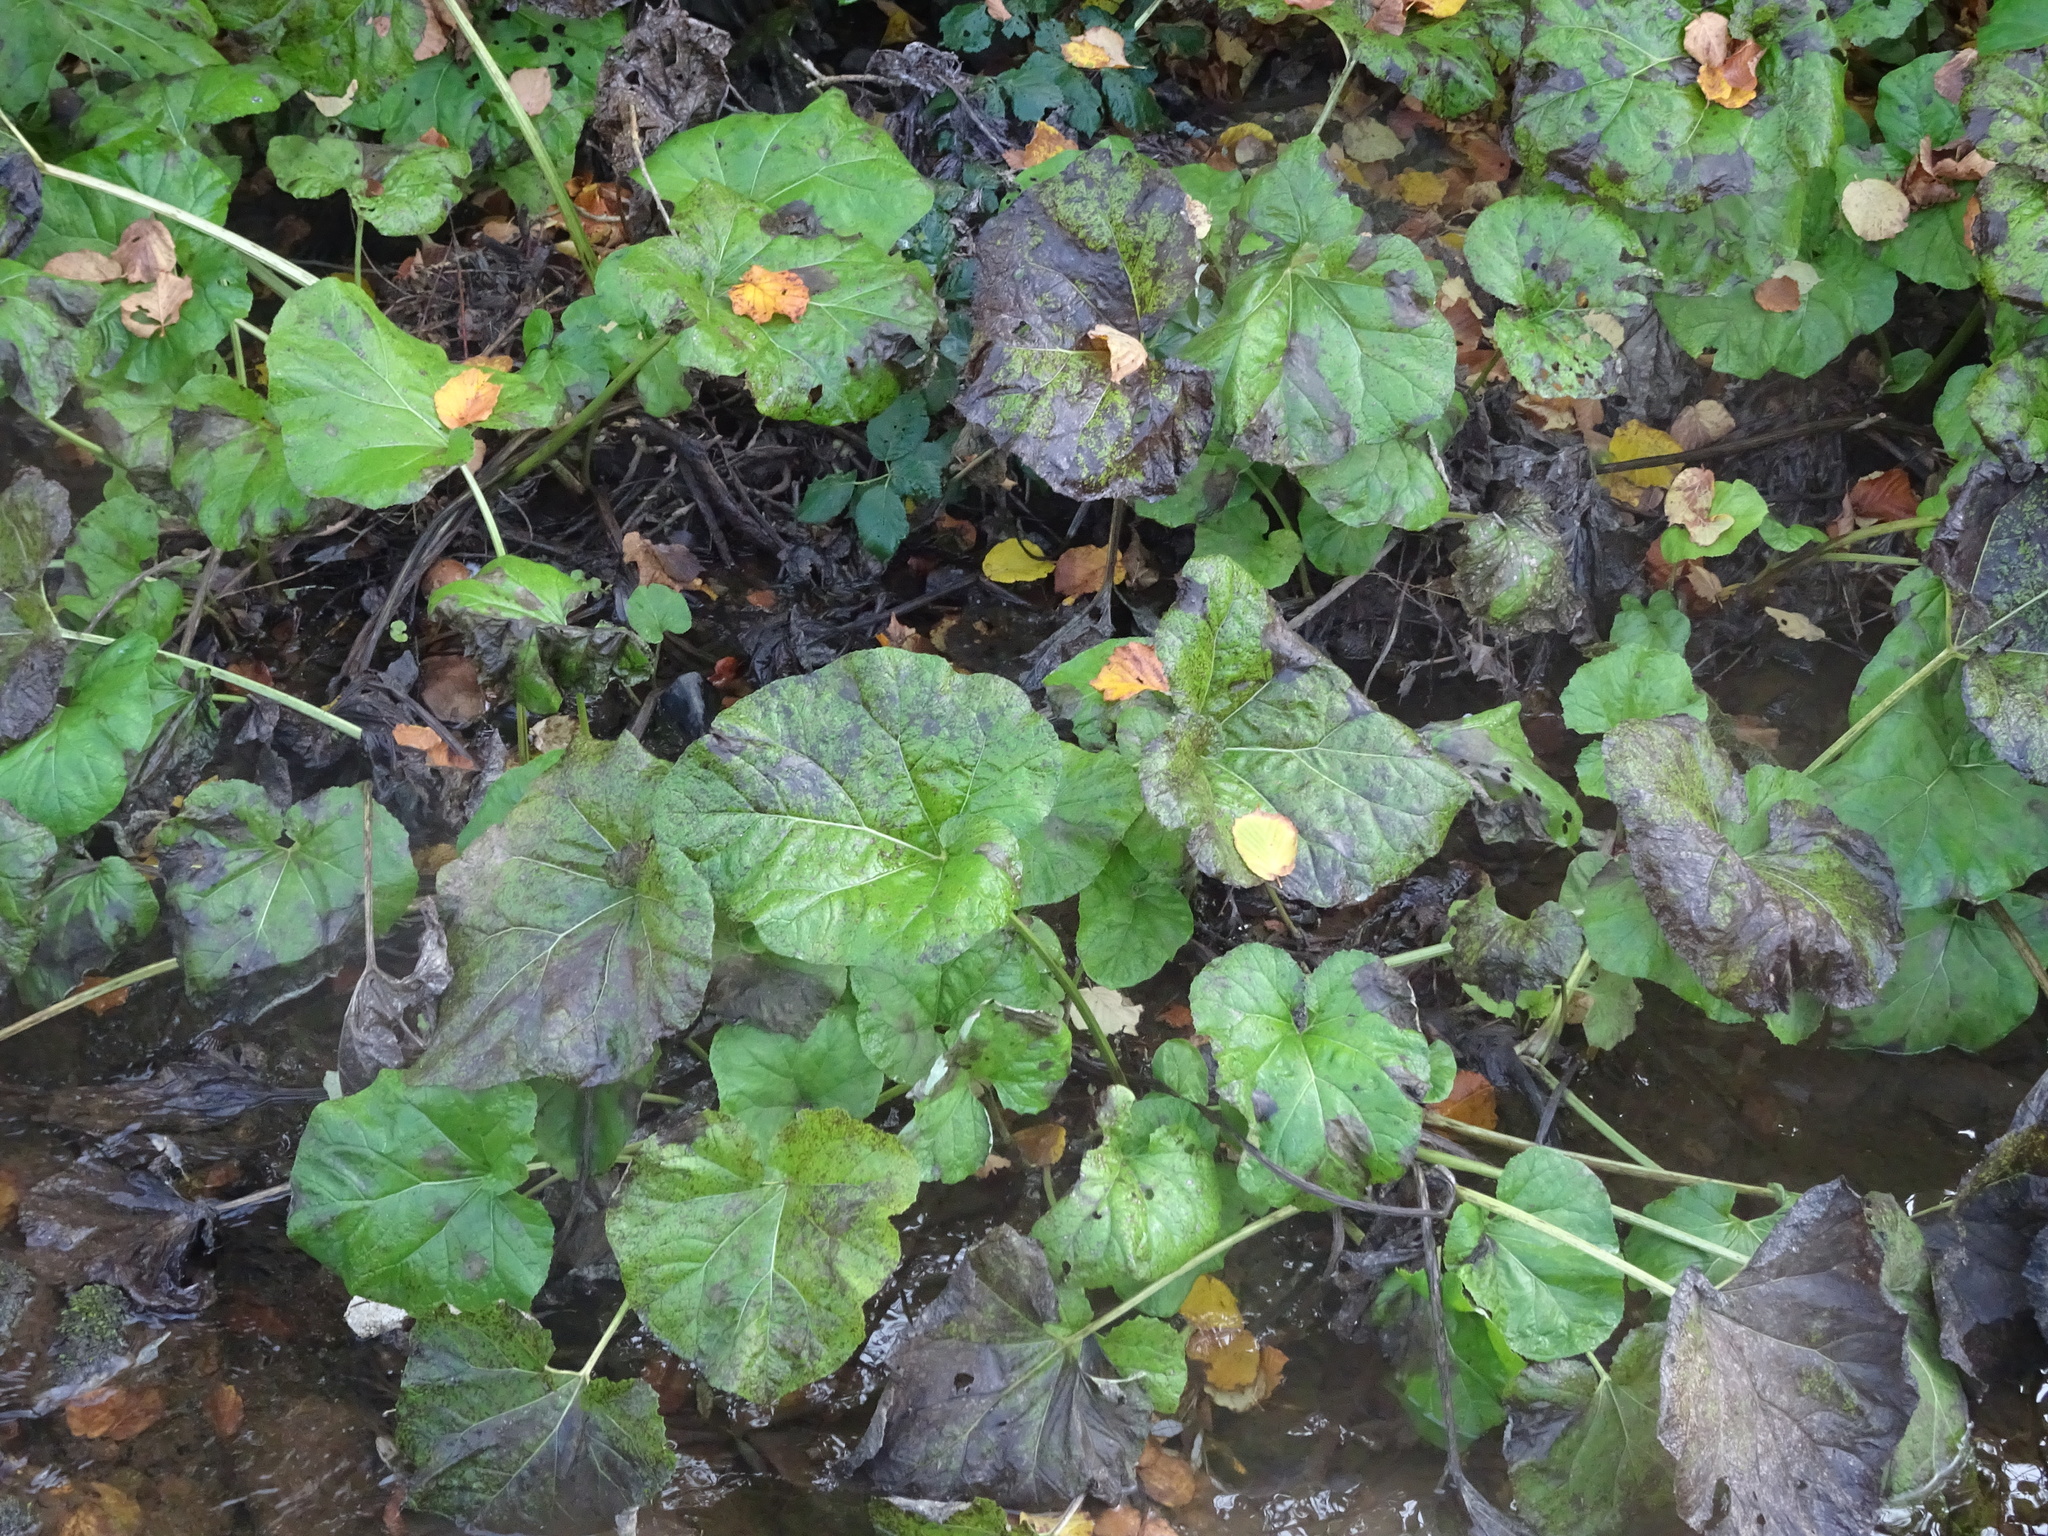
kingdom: Plantae
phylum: Tracheophyta
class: Magnoliopsida
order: Asterales
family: Asteraceae
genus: Petasites
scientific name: Petasites hybridus
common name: Butterbur
